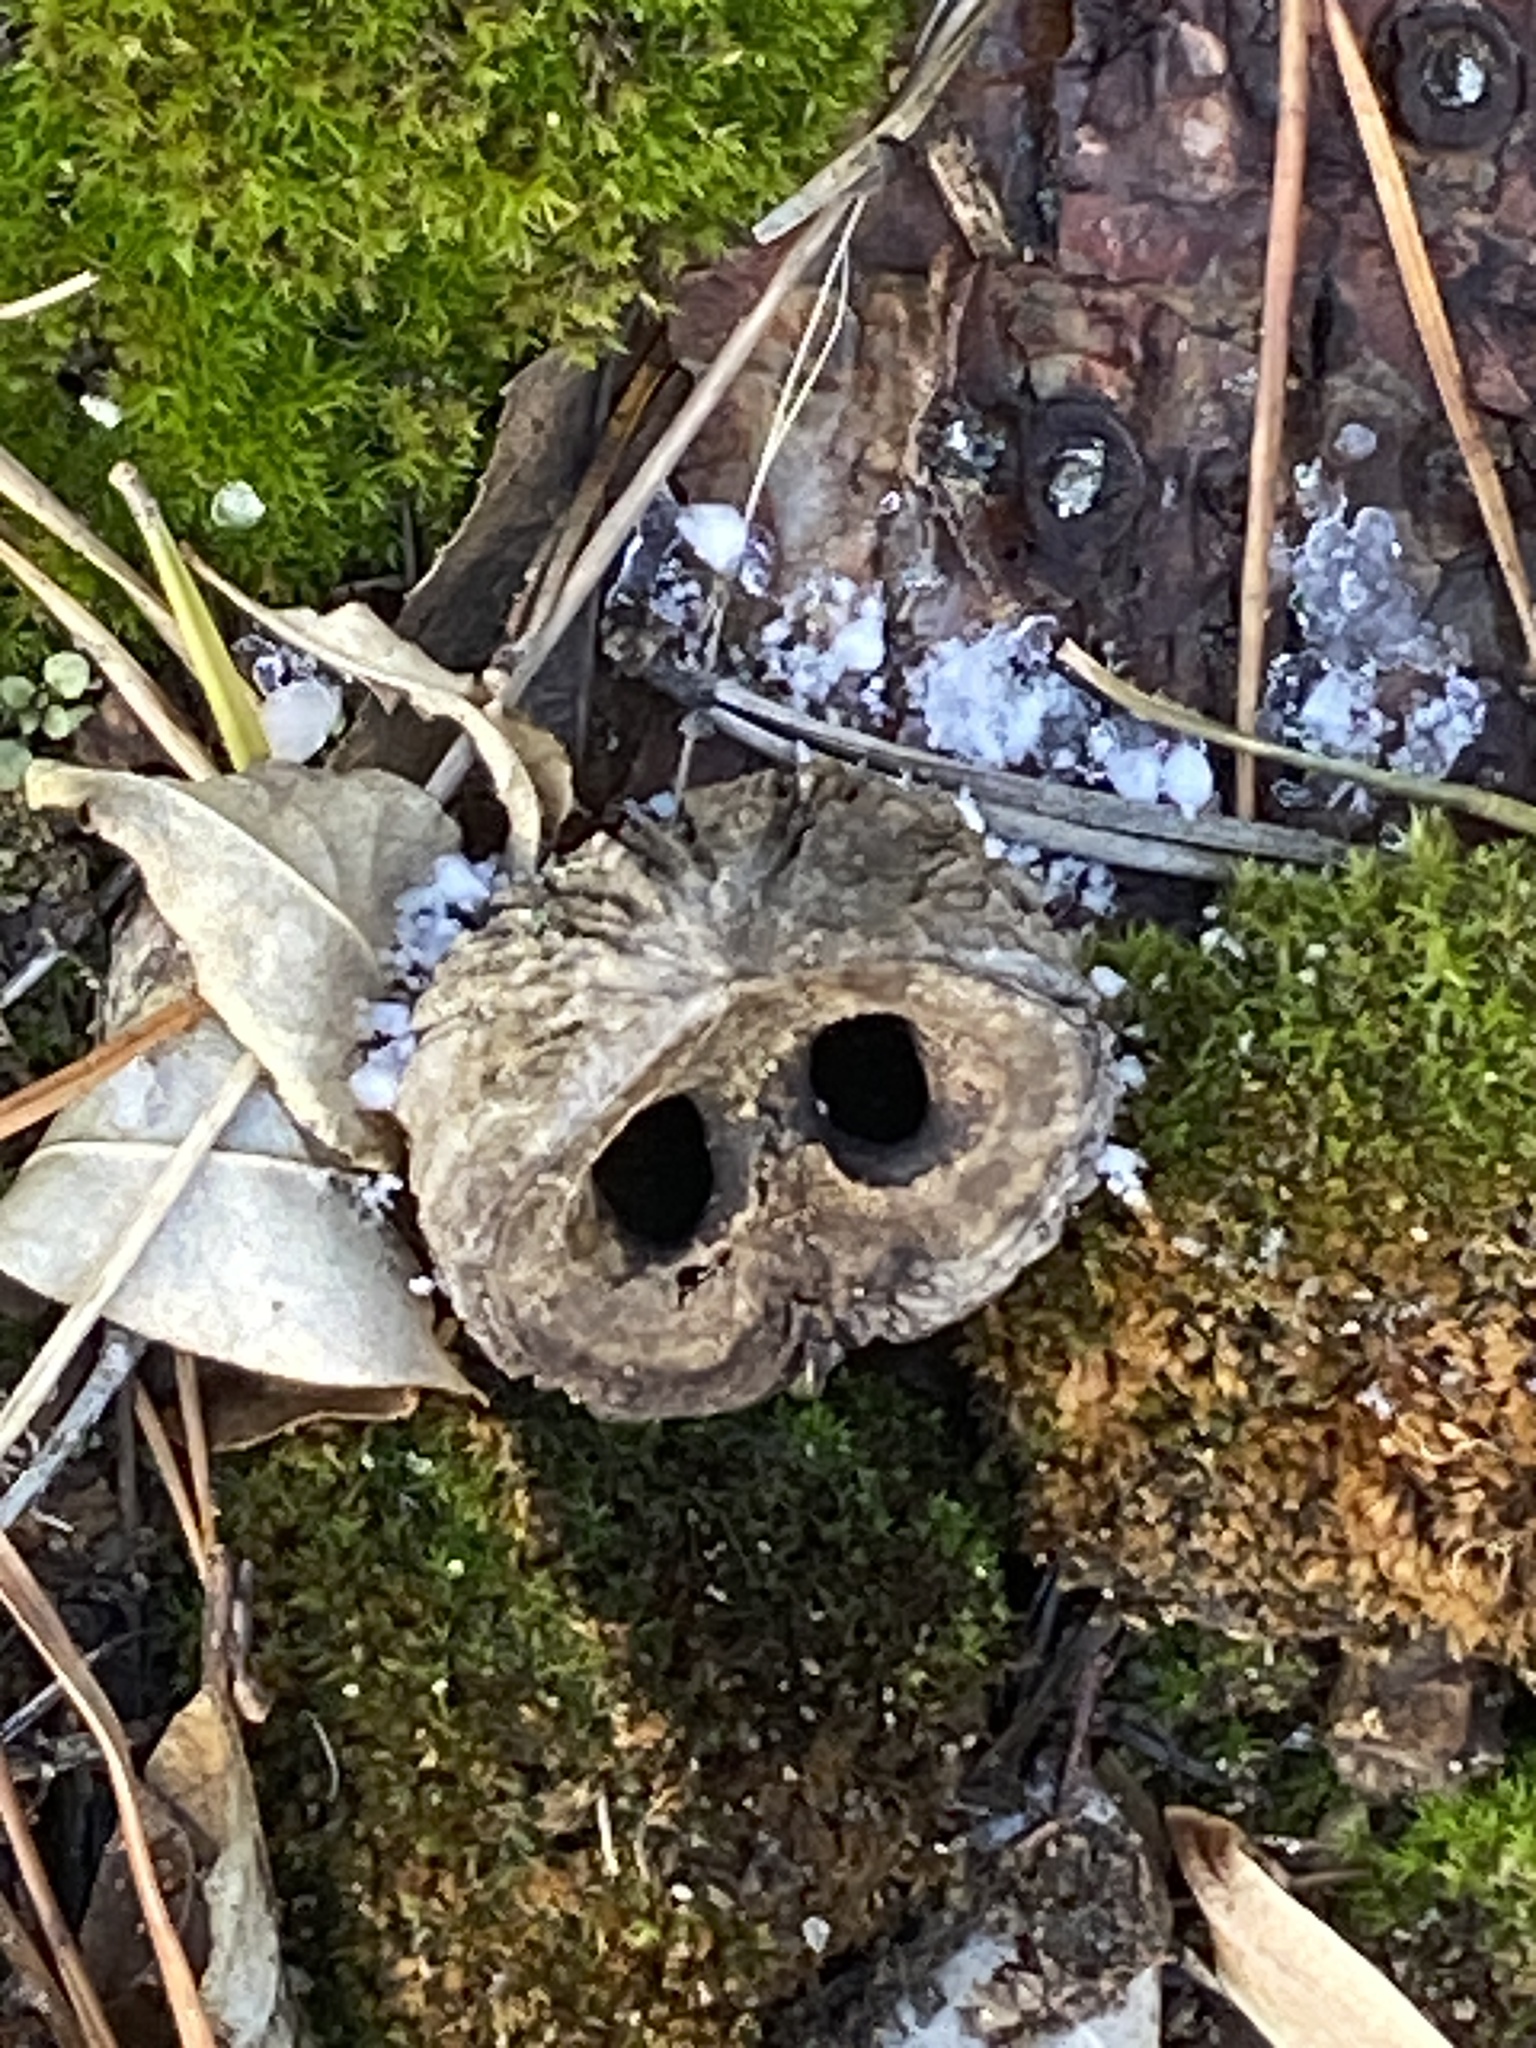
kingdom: Plantae
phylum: Tracheophyta
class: Magnoliopsida
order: Fagales
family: Juglandaceae
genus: Juglans
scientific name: Juglans nigra
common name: Black walnut
